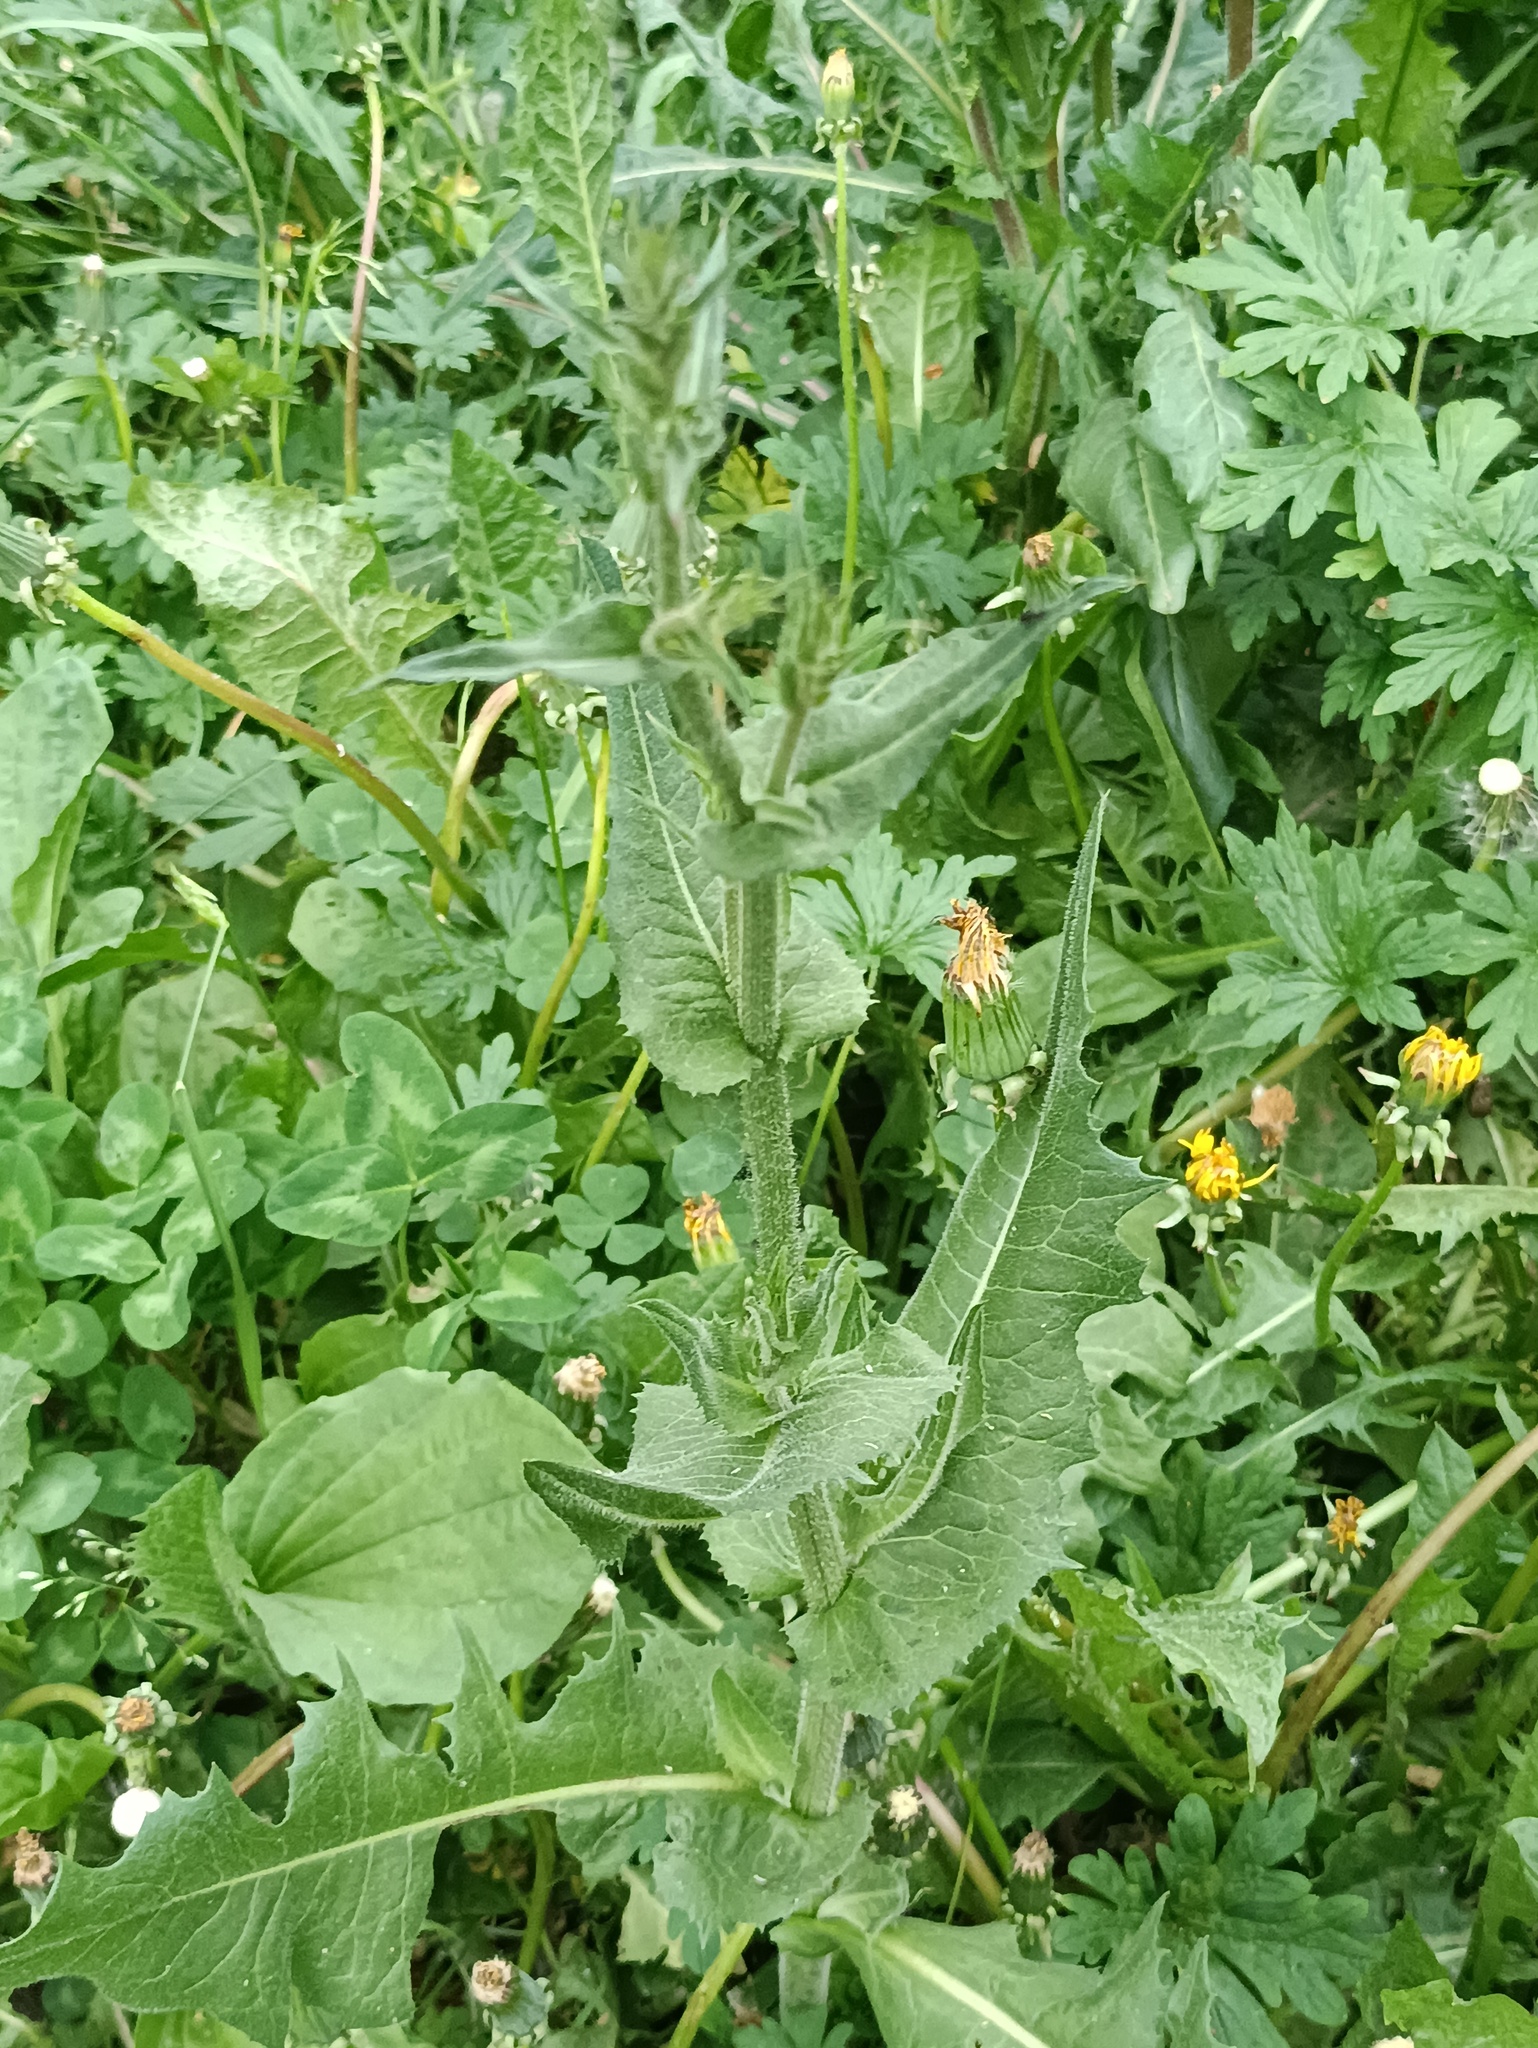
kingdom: Plantae
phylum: Tracheophyta
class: Magnoliopsida
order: Asterales
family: Asteraceae
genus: Cichorium
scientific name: Cichorium intybus
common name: Chicory
